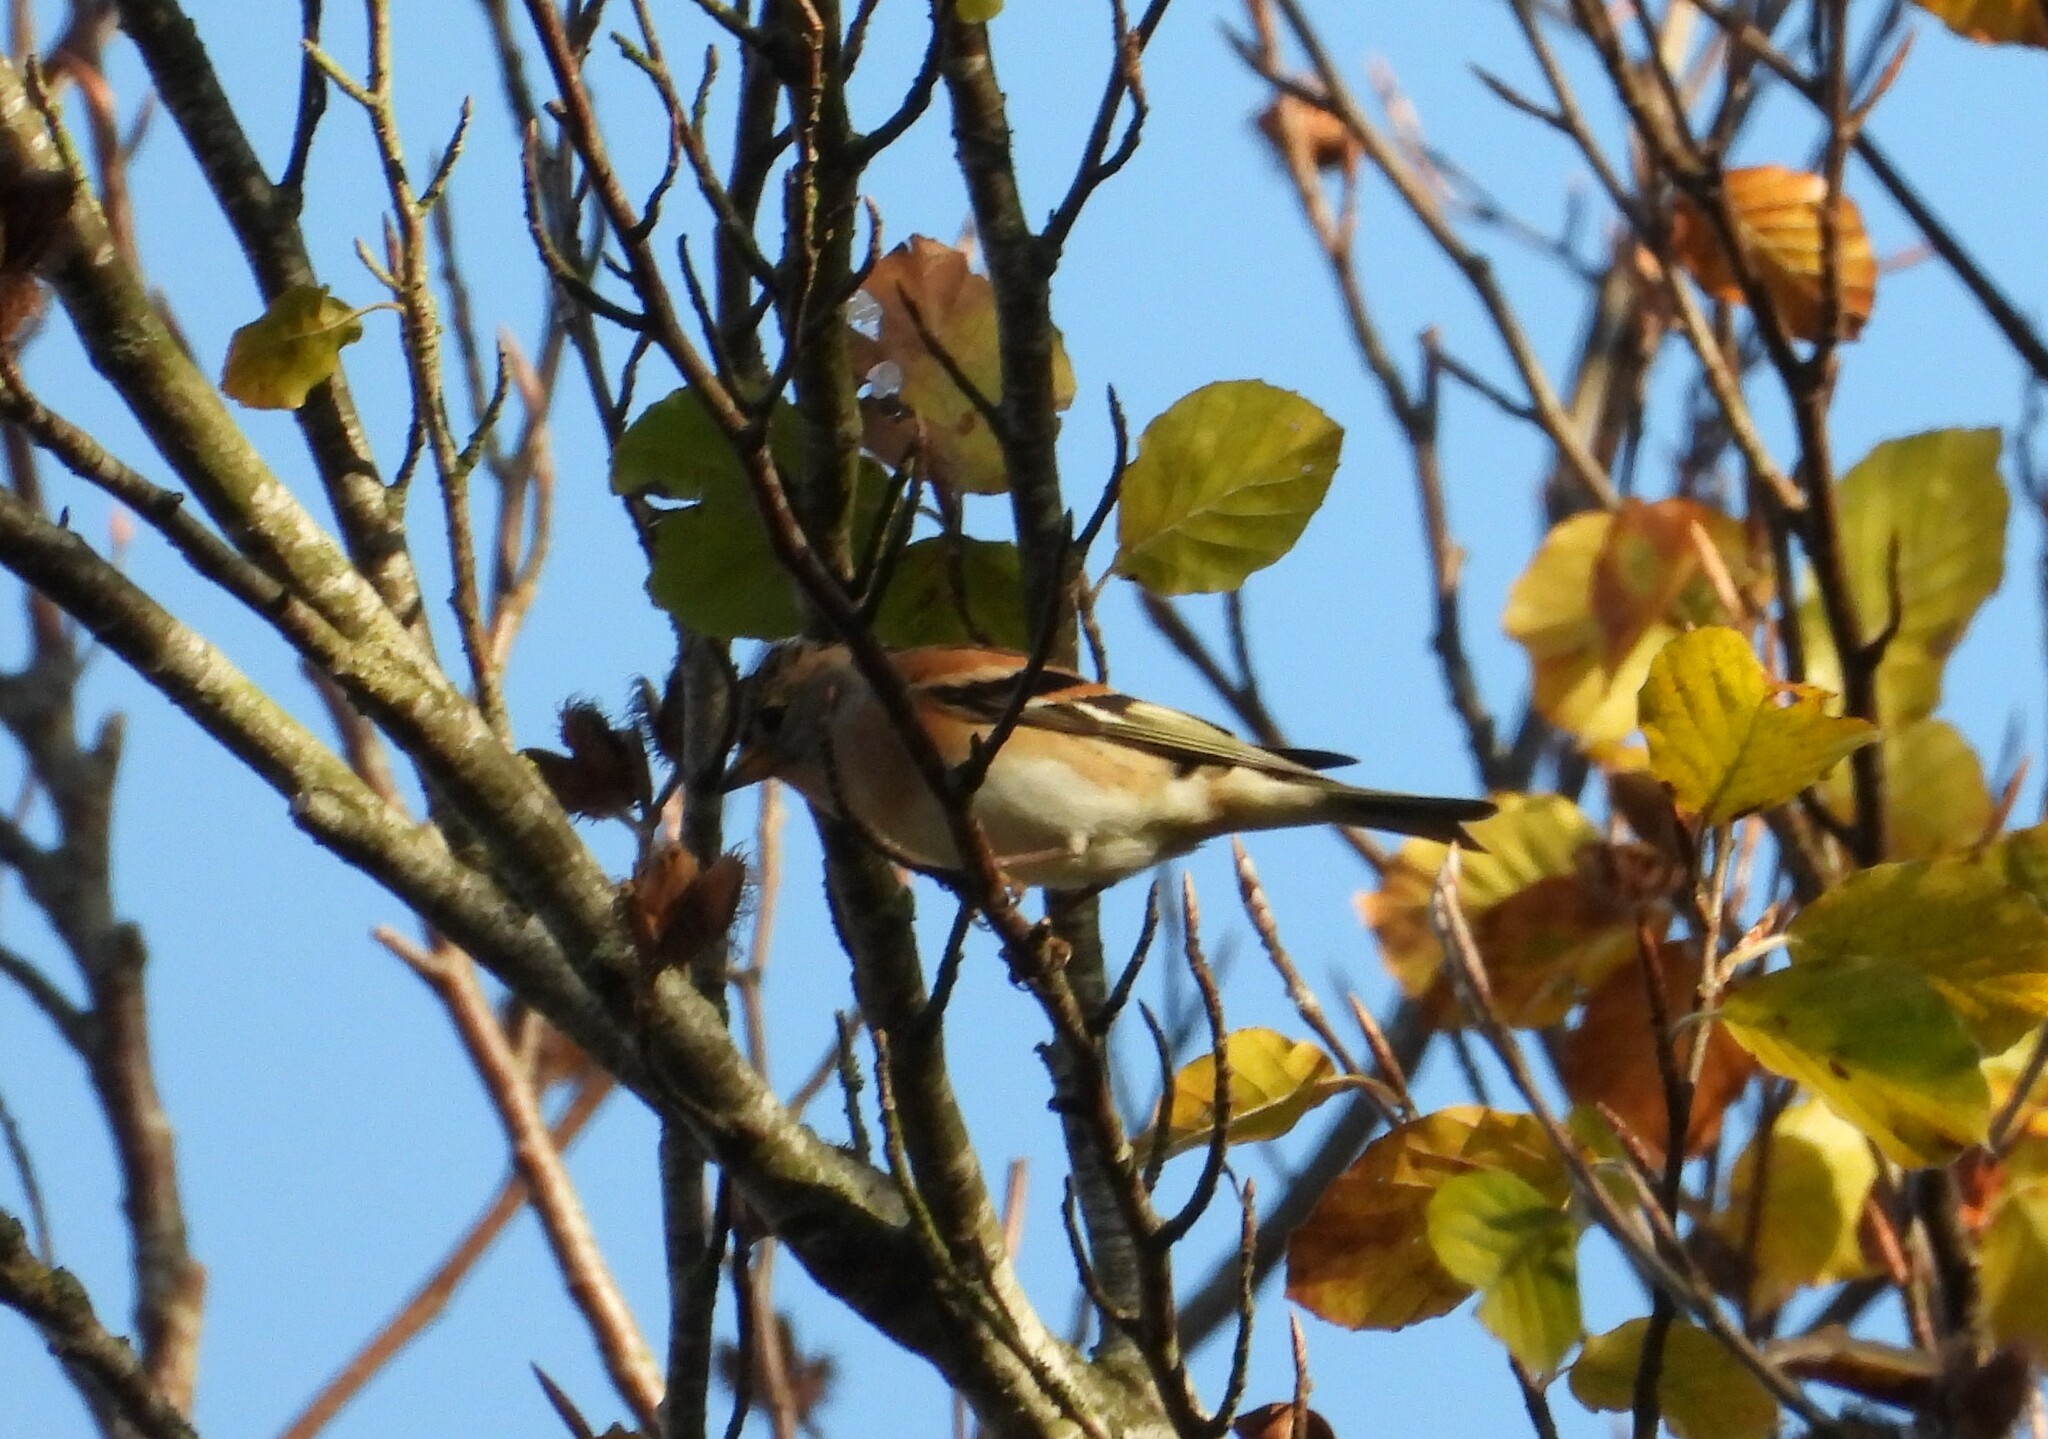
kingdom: Animalia
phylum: Chordata
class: Aves
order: Passeriformes
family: Fringillidae
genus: Fringilla
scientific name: Fringilla montifringilla
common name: Brambling
